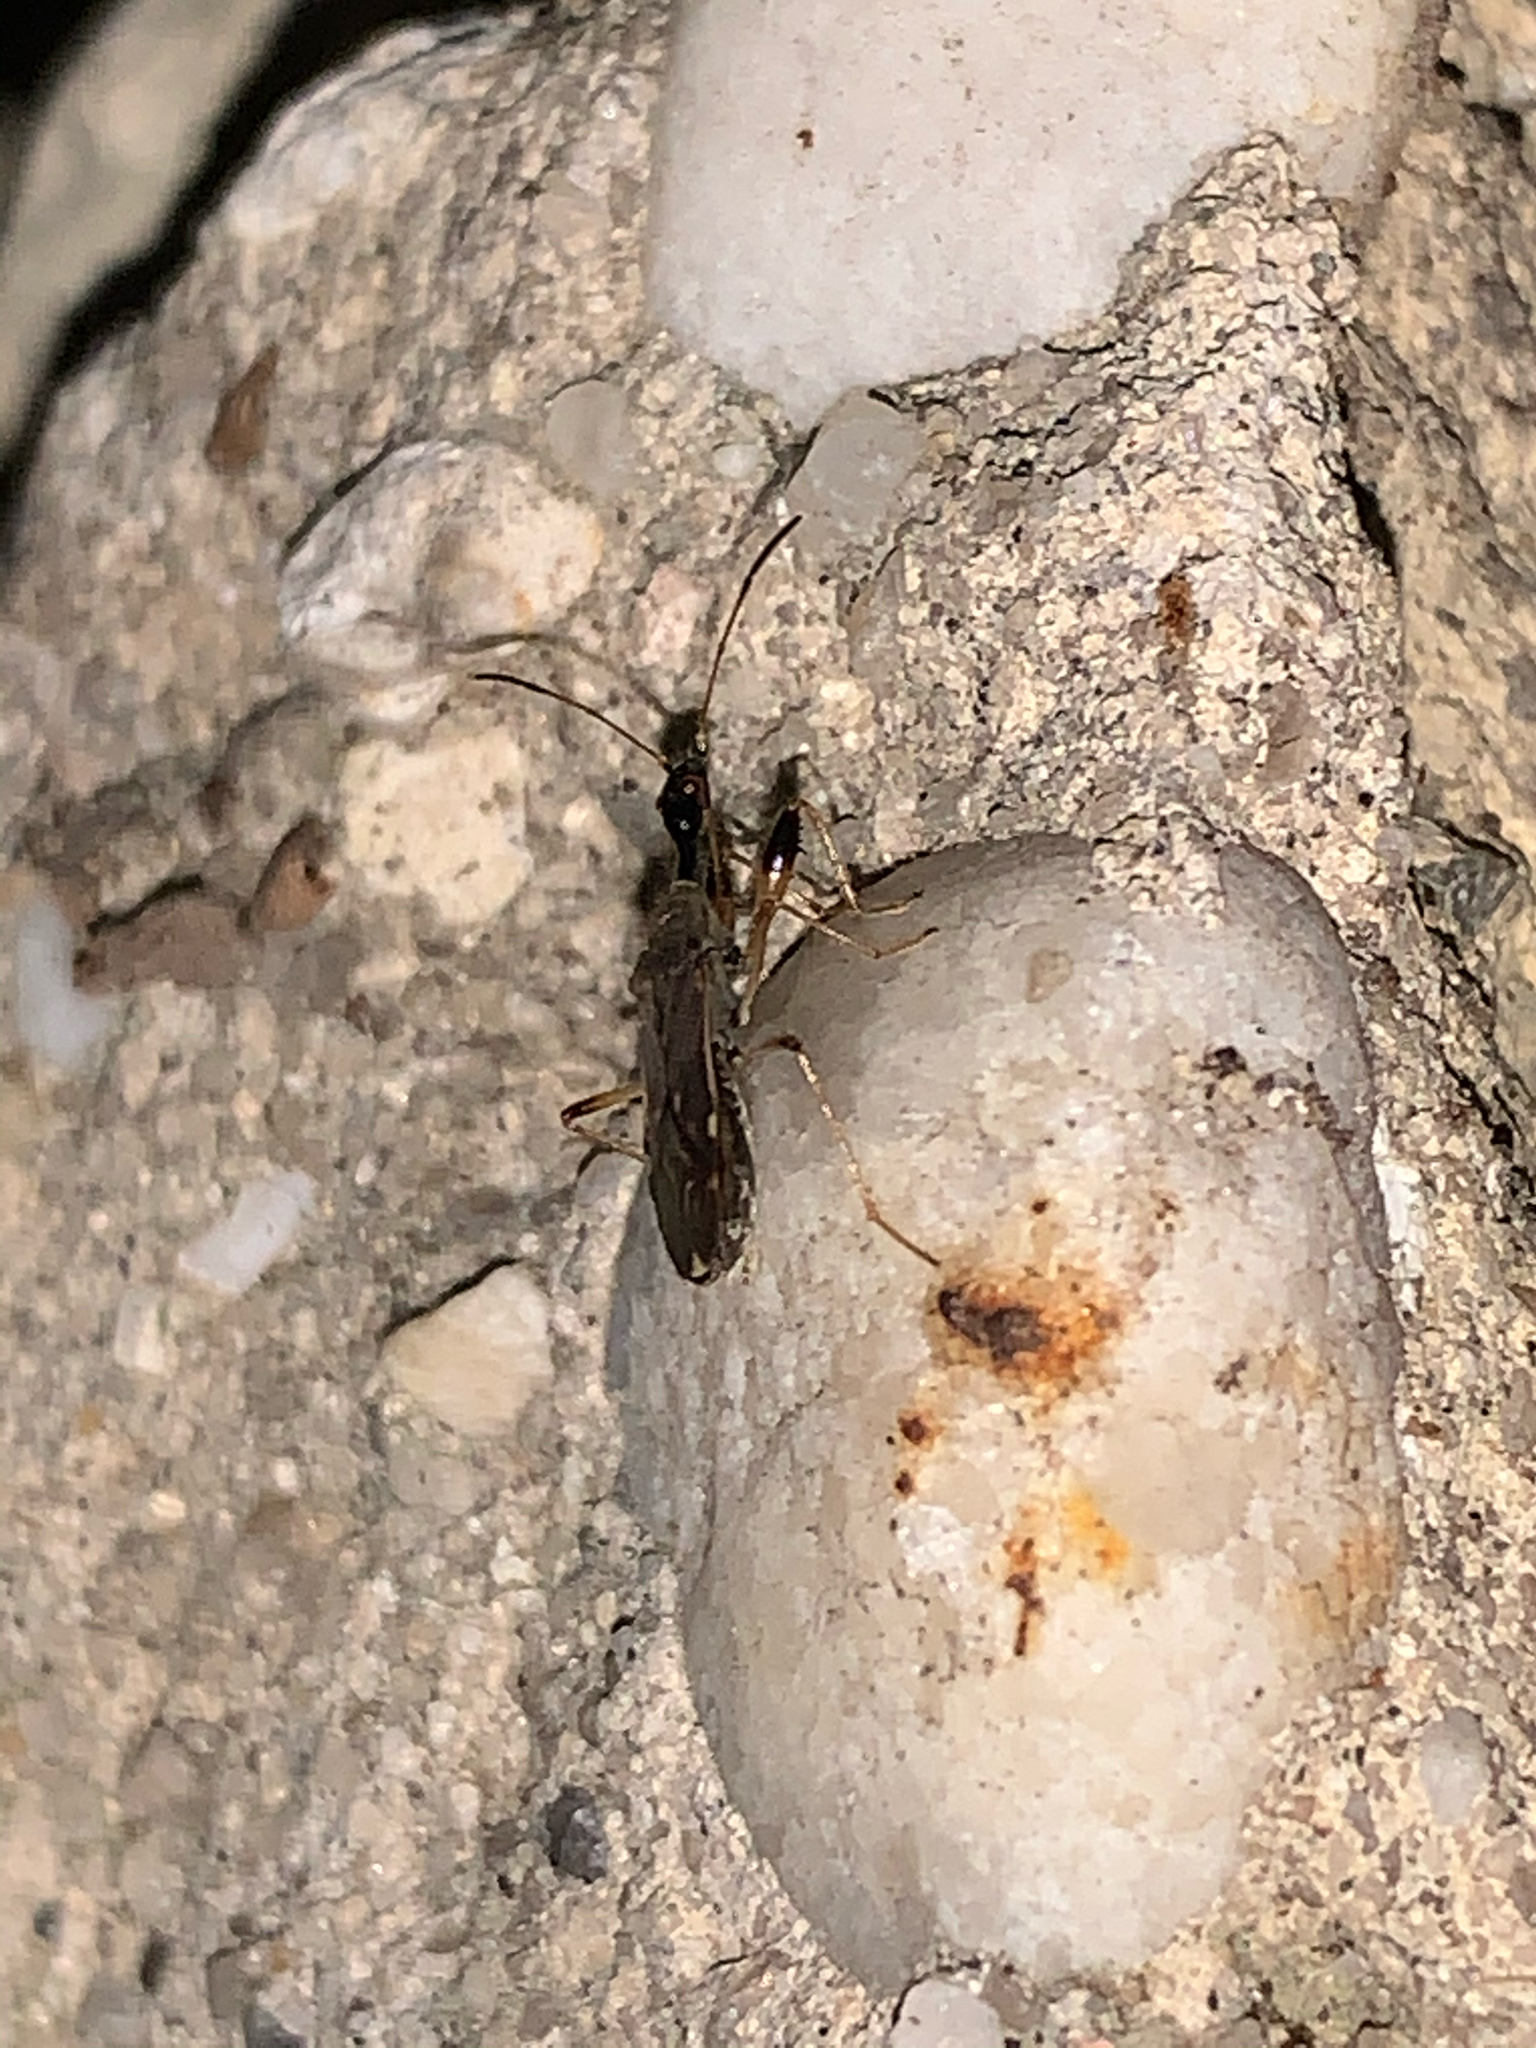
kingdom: Animalia
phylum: Arthropoda
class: Insecta
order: Hemiptera
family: Rhyparochromidae
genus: Myodocha
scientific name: Myodocha serripes
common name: Long-necked seed bug
